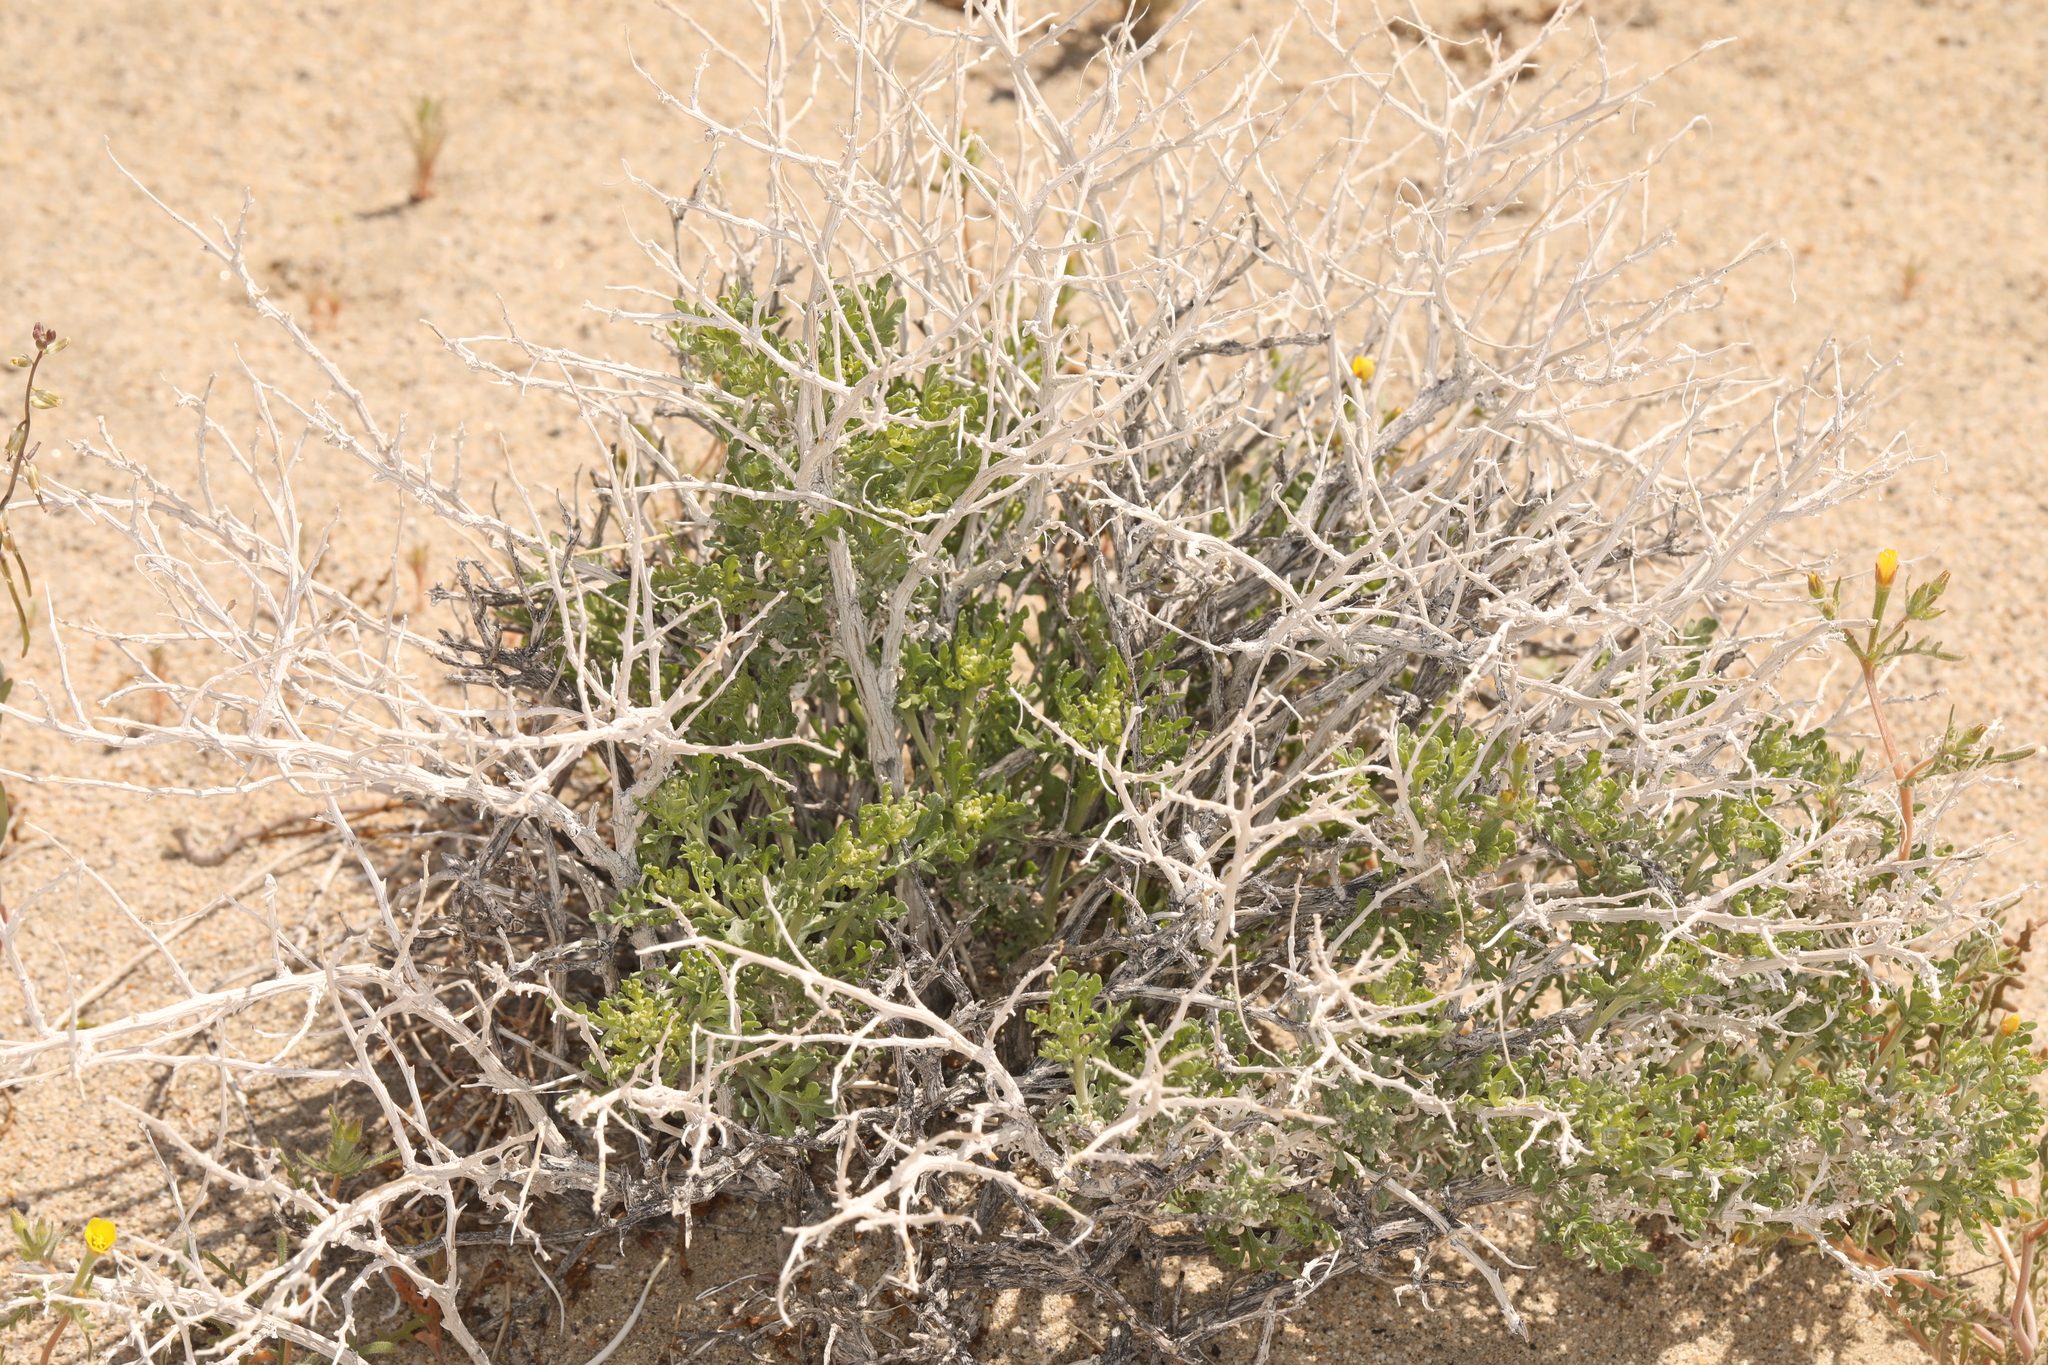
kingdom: Plantae
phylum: Tracheophyta
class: Magnoliopsida
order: Asterales
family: Asteraceae
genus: Ambrosia
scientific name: Ambrosia dumosa
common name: Bur-sage
